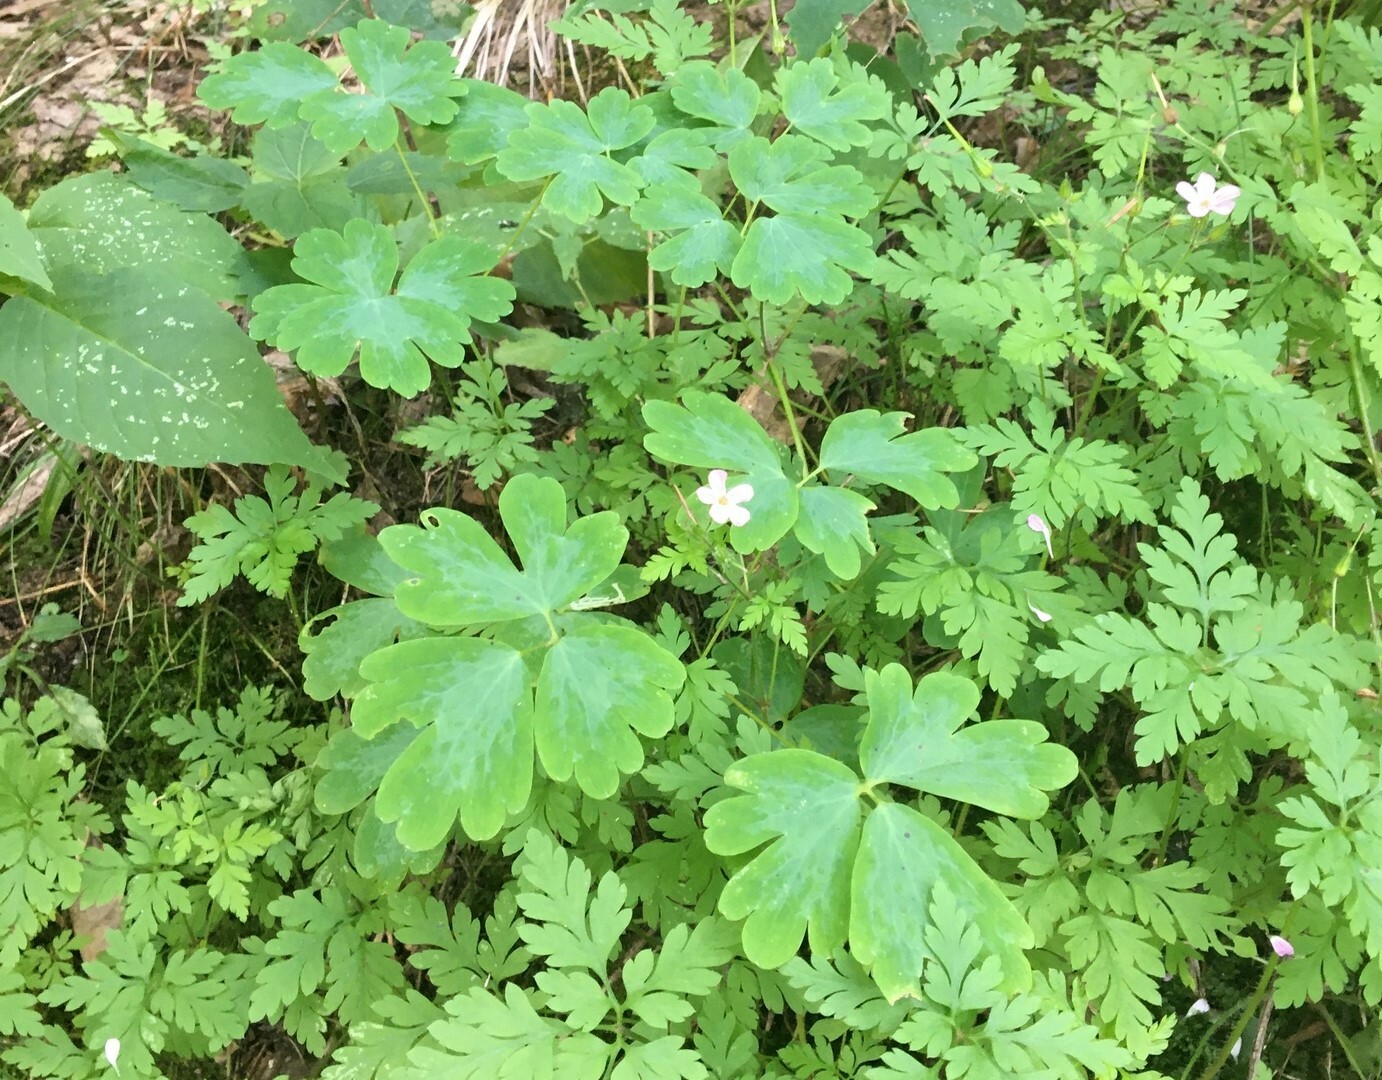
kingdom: Plantae
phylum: Tracheophyta
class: Magnoliopsida
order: Ranunculales
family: Ranunculaceae
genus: Aquilegia
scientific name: Aquilegia canadensis
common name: American columbine
